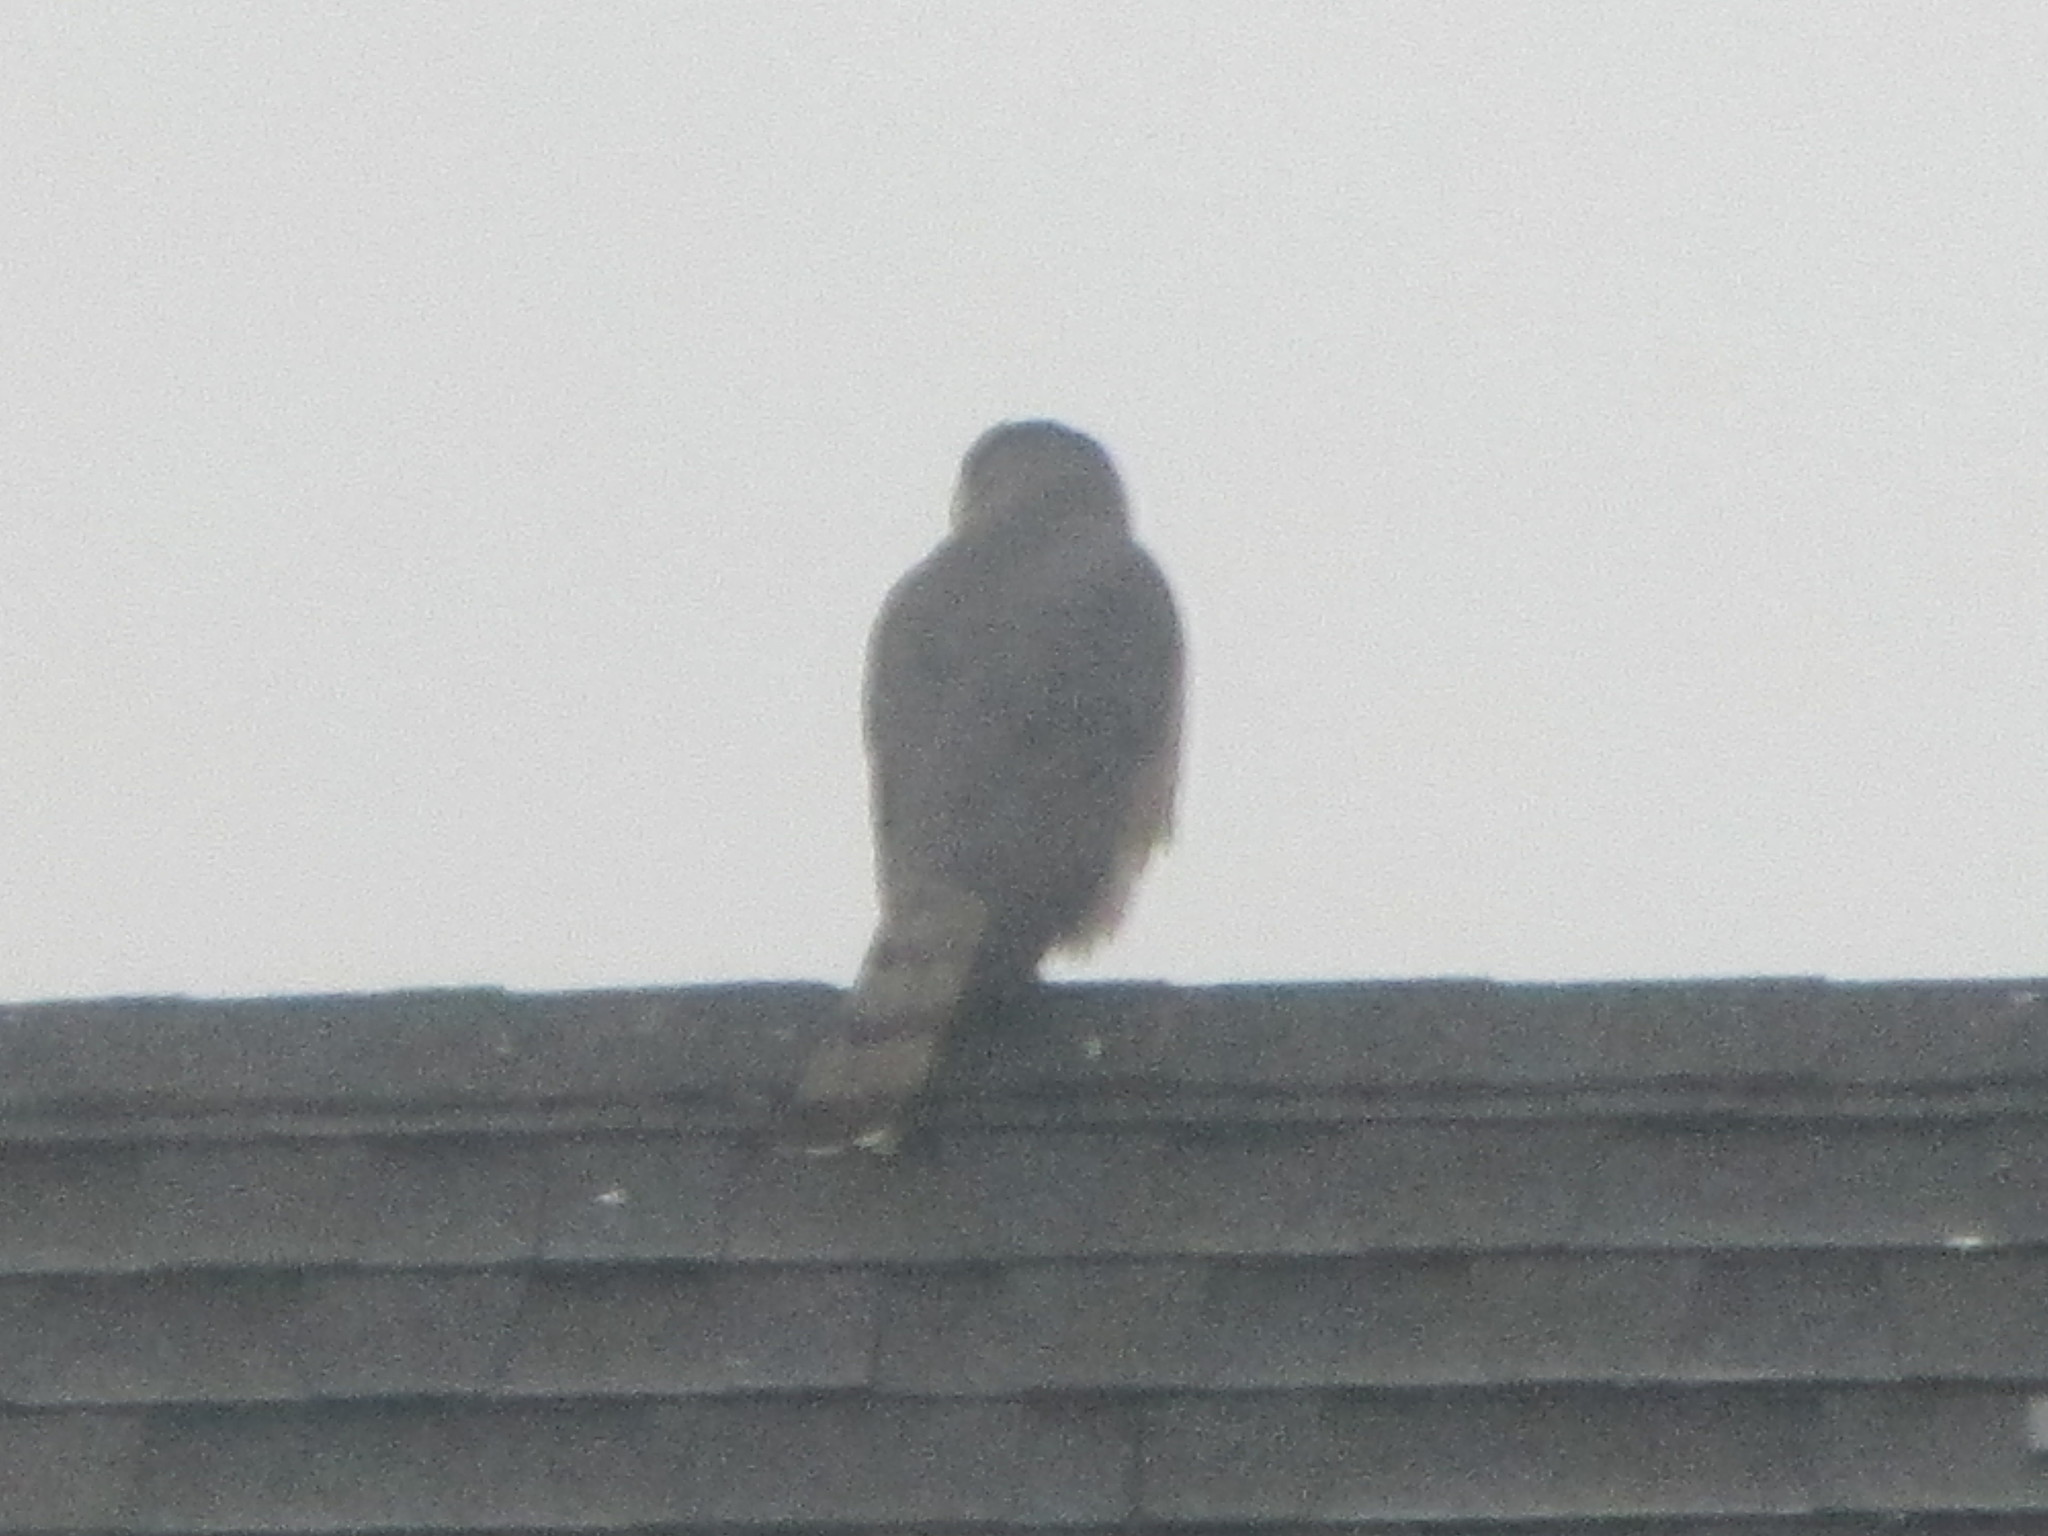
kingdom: Animalia
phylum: Chordata
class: Aves
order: Accipitriformes
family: Accipitridae
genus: Accipiter
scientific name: Accipiter cooperii
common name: Cooper's hawk
